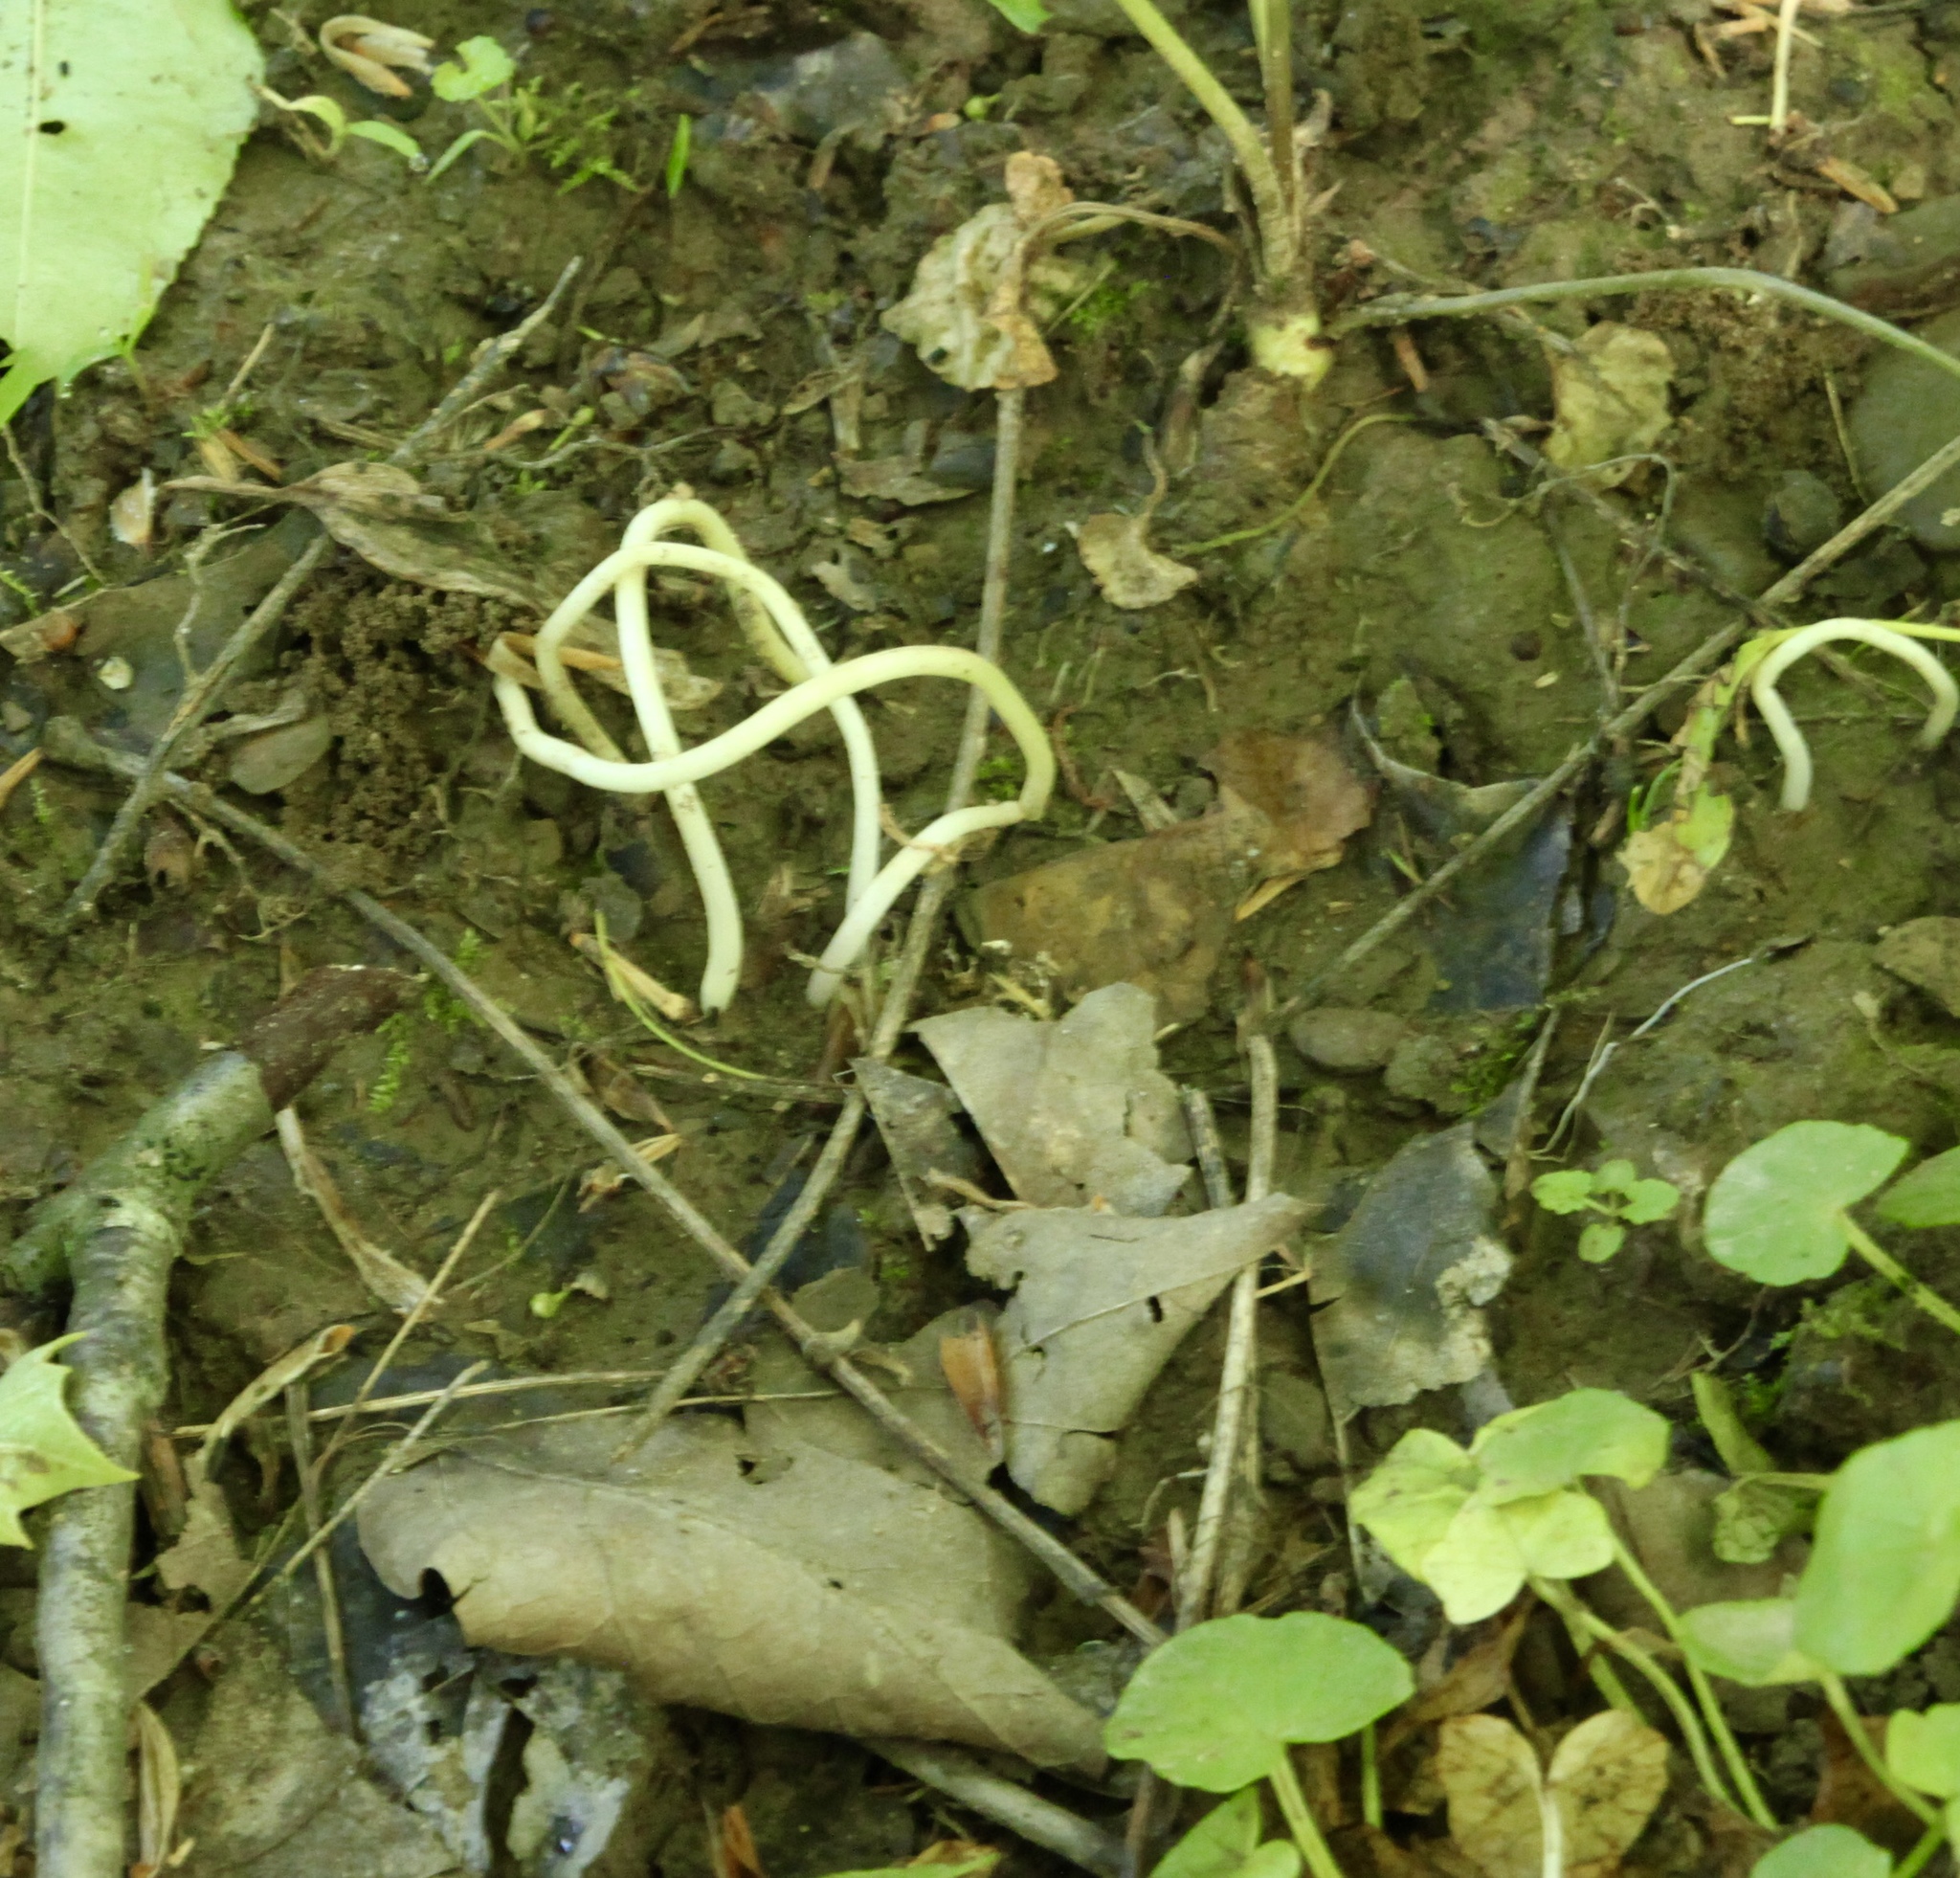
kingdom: Plantae
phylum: Tracheophyta
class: Liliopsida
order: Liliales
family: Liliaceae
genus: Erythronium
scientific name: Erythronium americanum
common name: Yellow adder's-tongue
